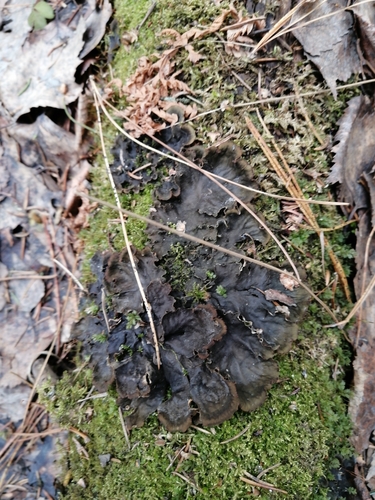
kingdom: Fungi
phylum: Ascomycota
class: Lecanoromycetes
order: Peltigerales
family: Peltigeraceae
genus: Peltigera
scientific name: Peltigera
